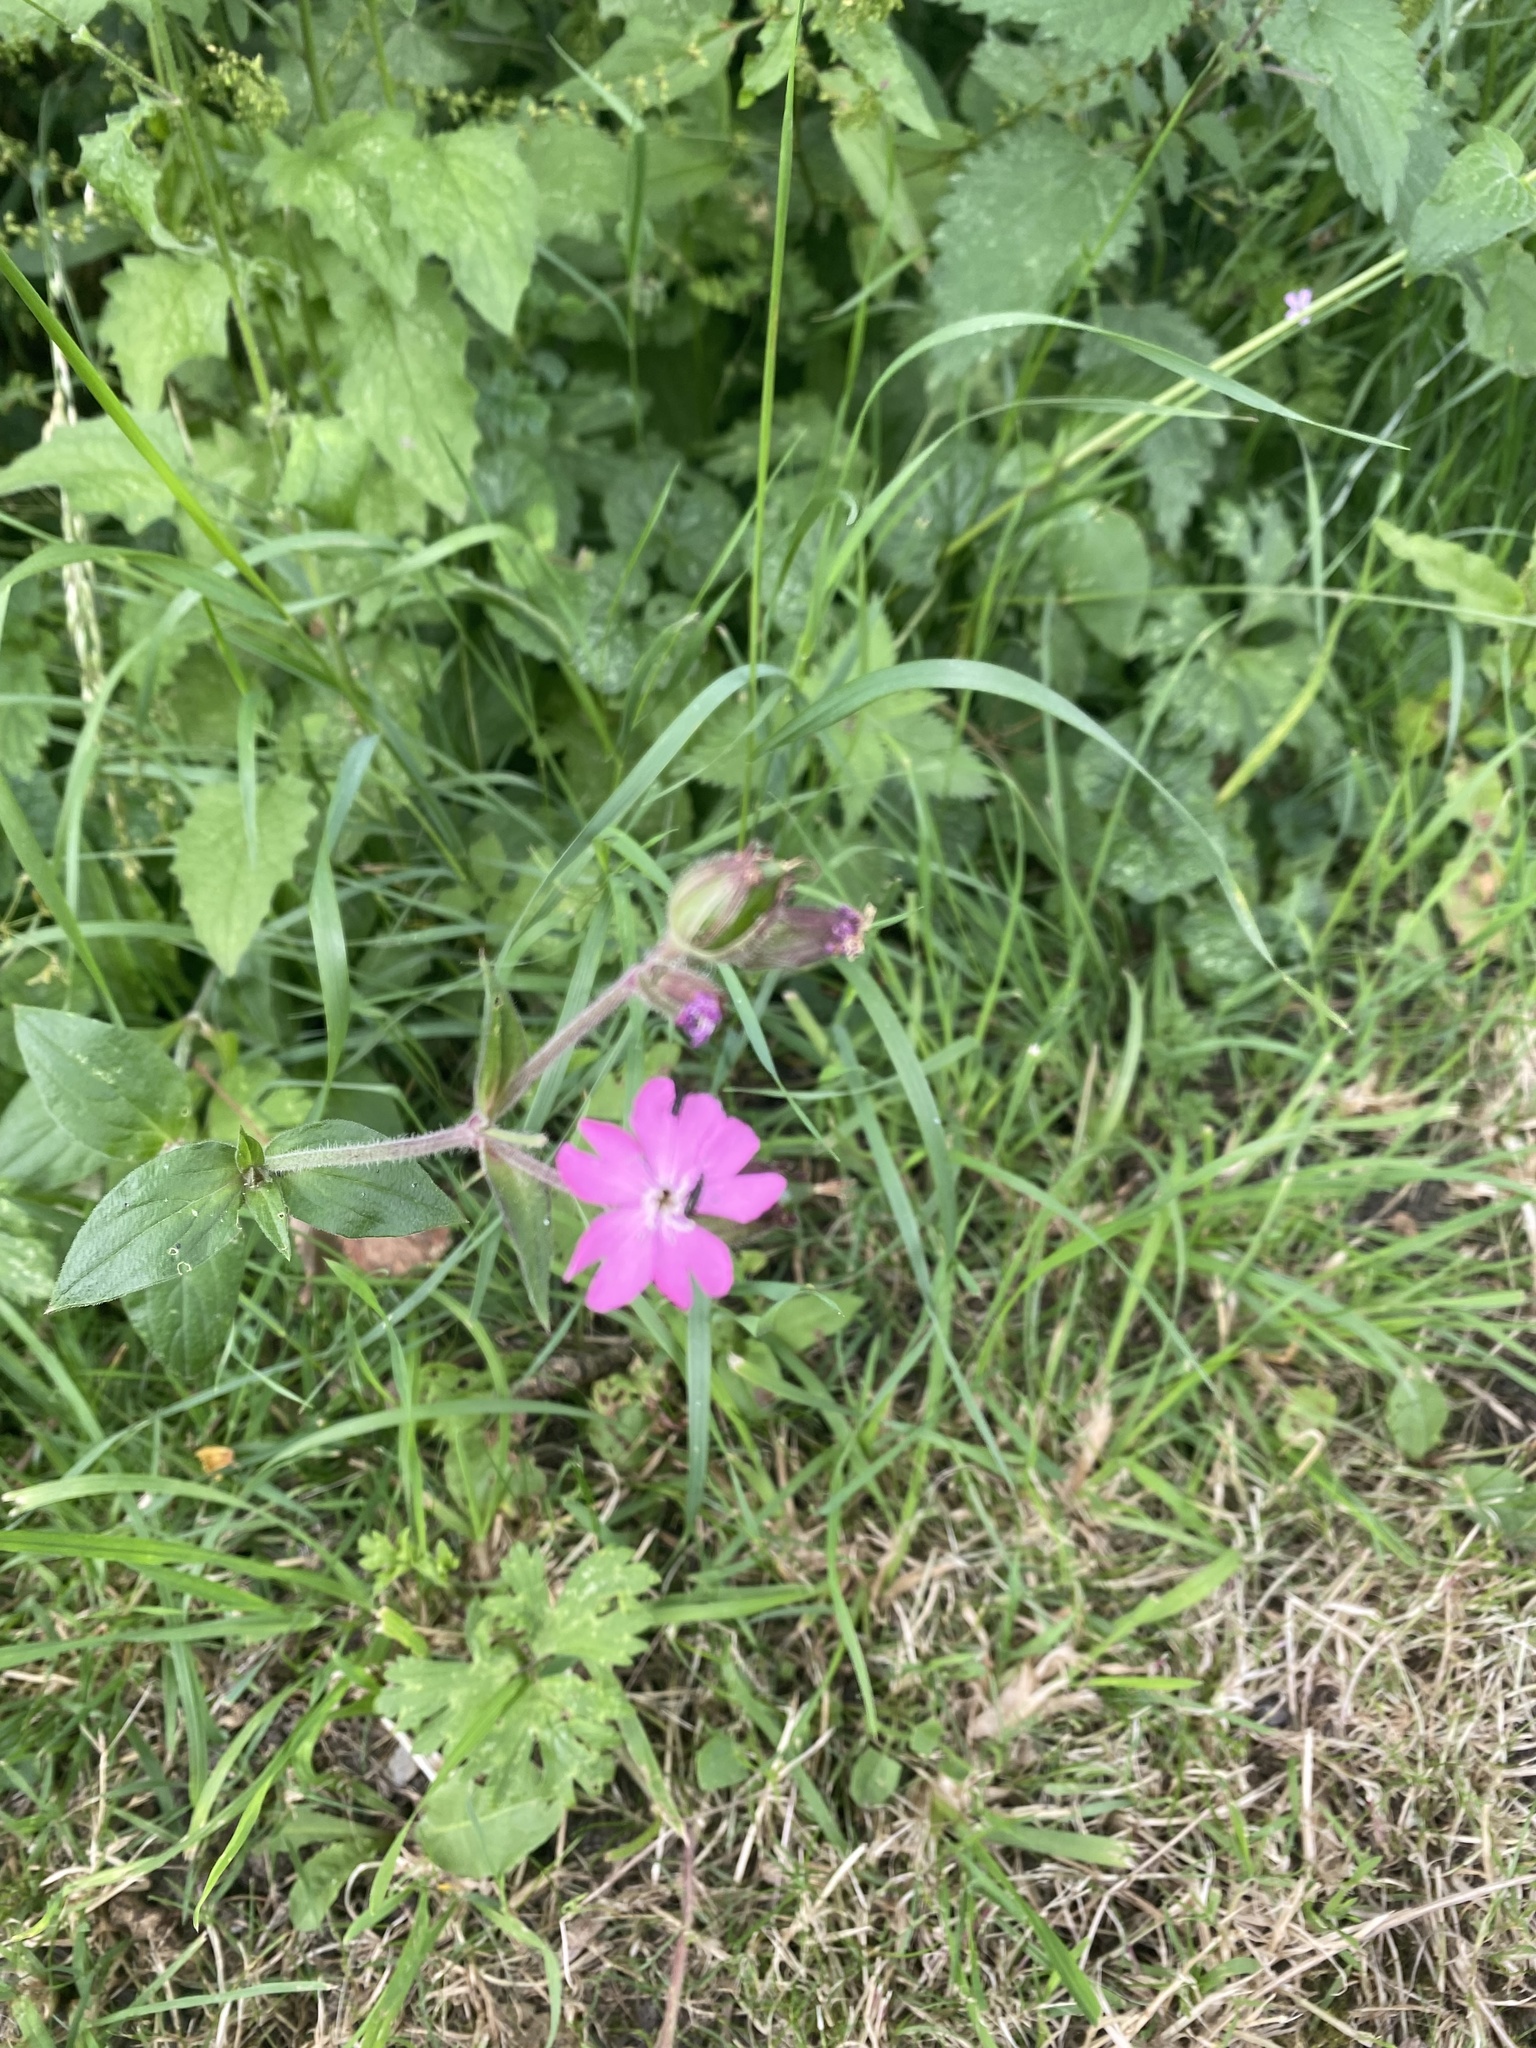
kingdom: Plantae
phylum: Tracheophyta
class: Magnoliopsida
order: Caryophyllales
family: Caryophyllaceae
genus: Silene
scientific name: Silene dioica
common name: Red campion
